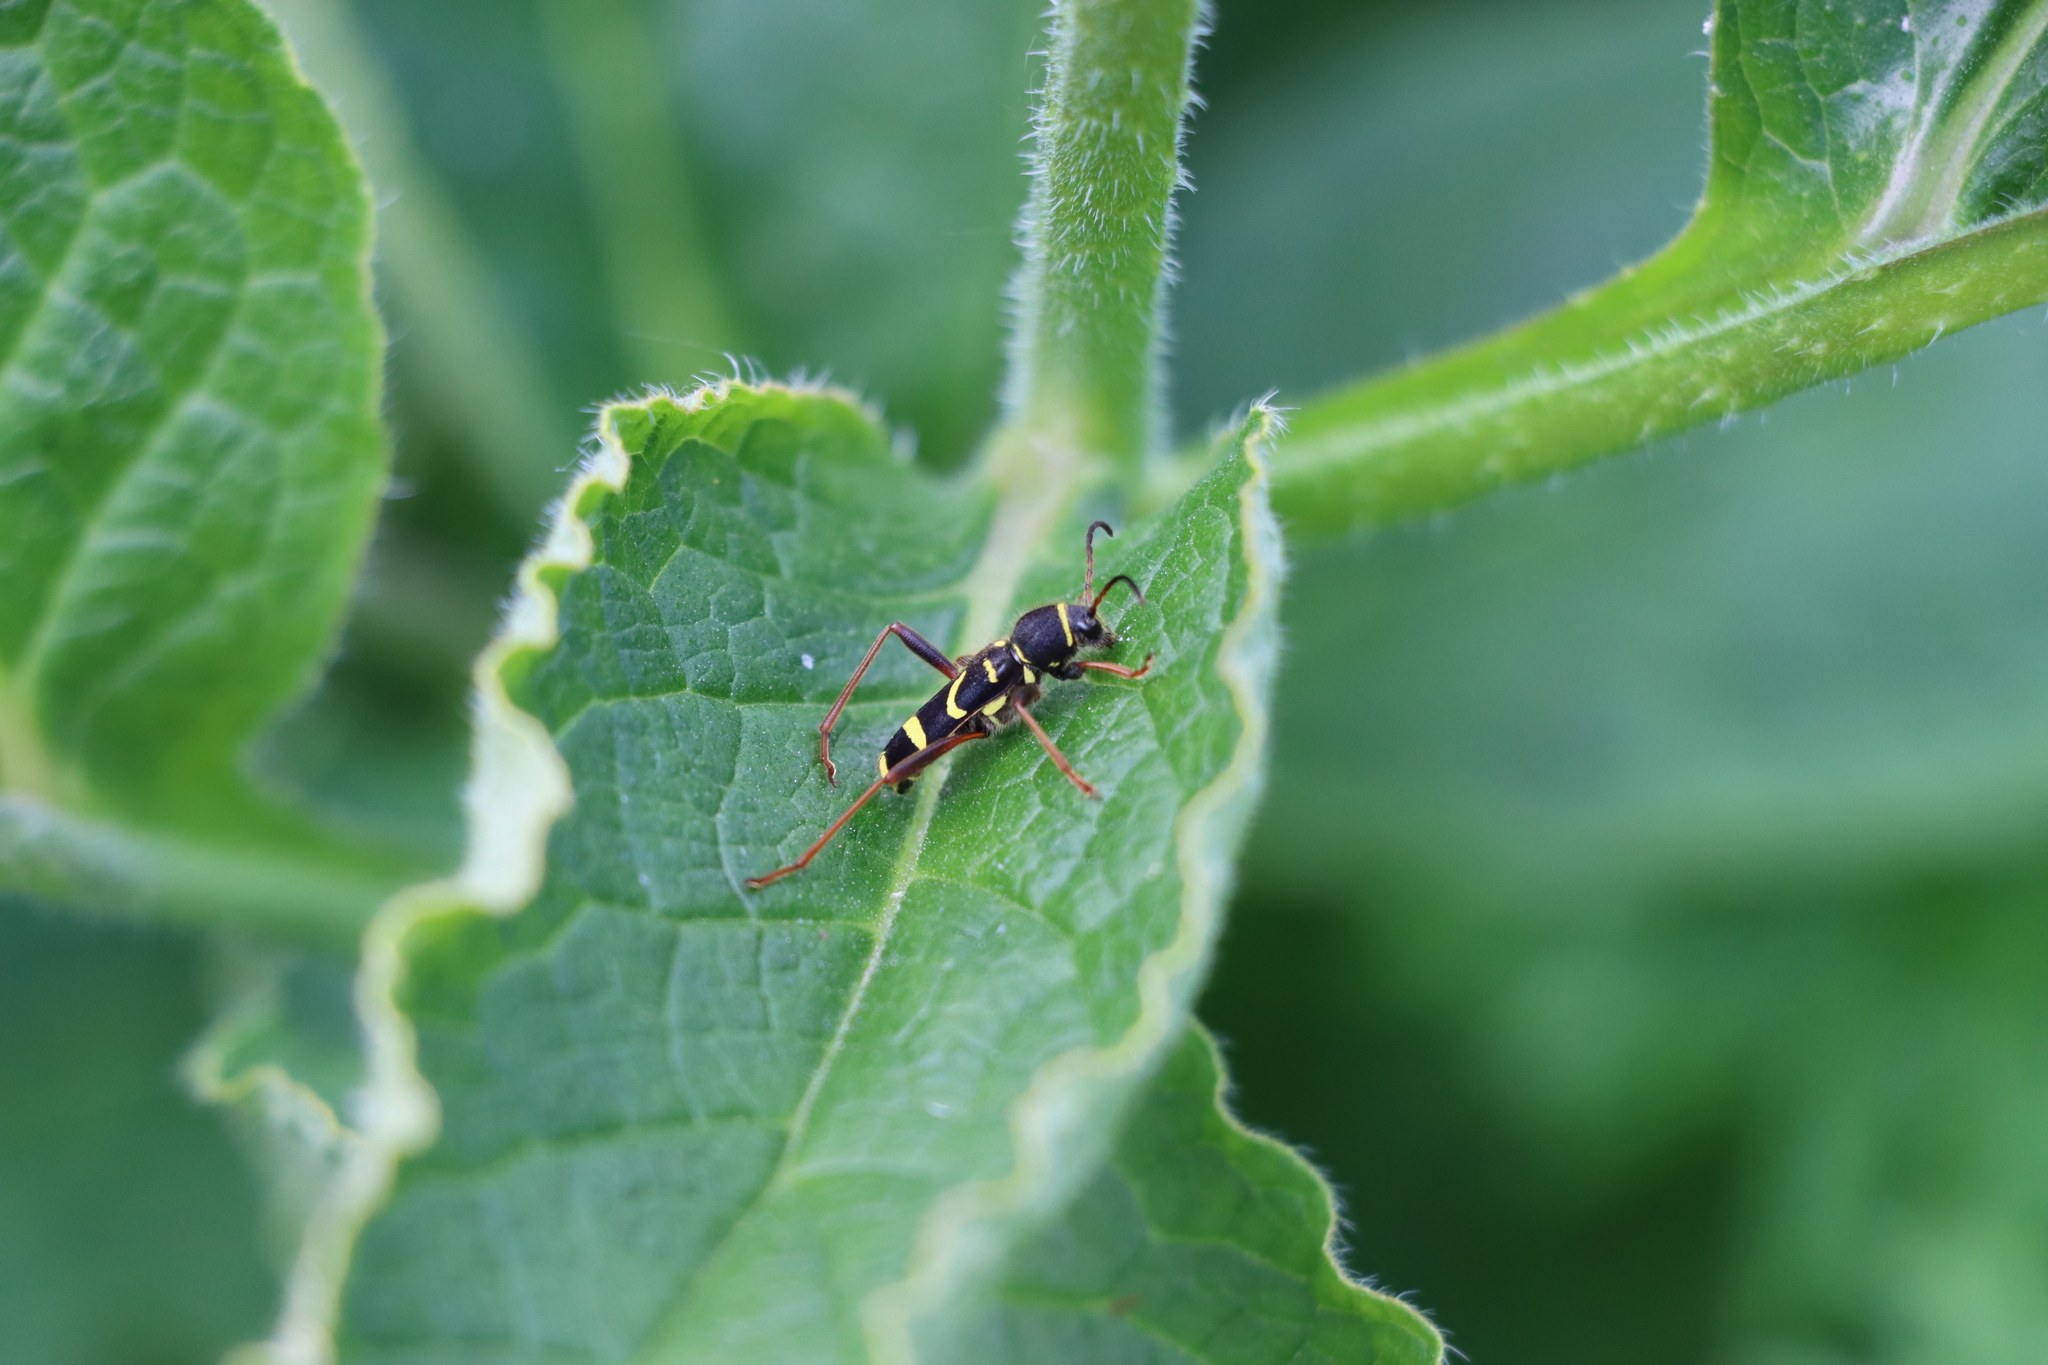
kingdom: Animalia
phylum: Arthropoda
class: Insecta
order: Coleoptera
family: Cerambycidae
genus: Clytus
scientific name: Clytus arietis
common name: Wasp beetle
